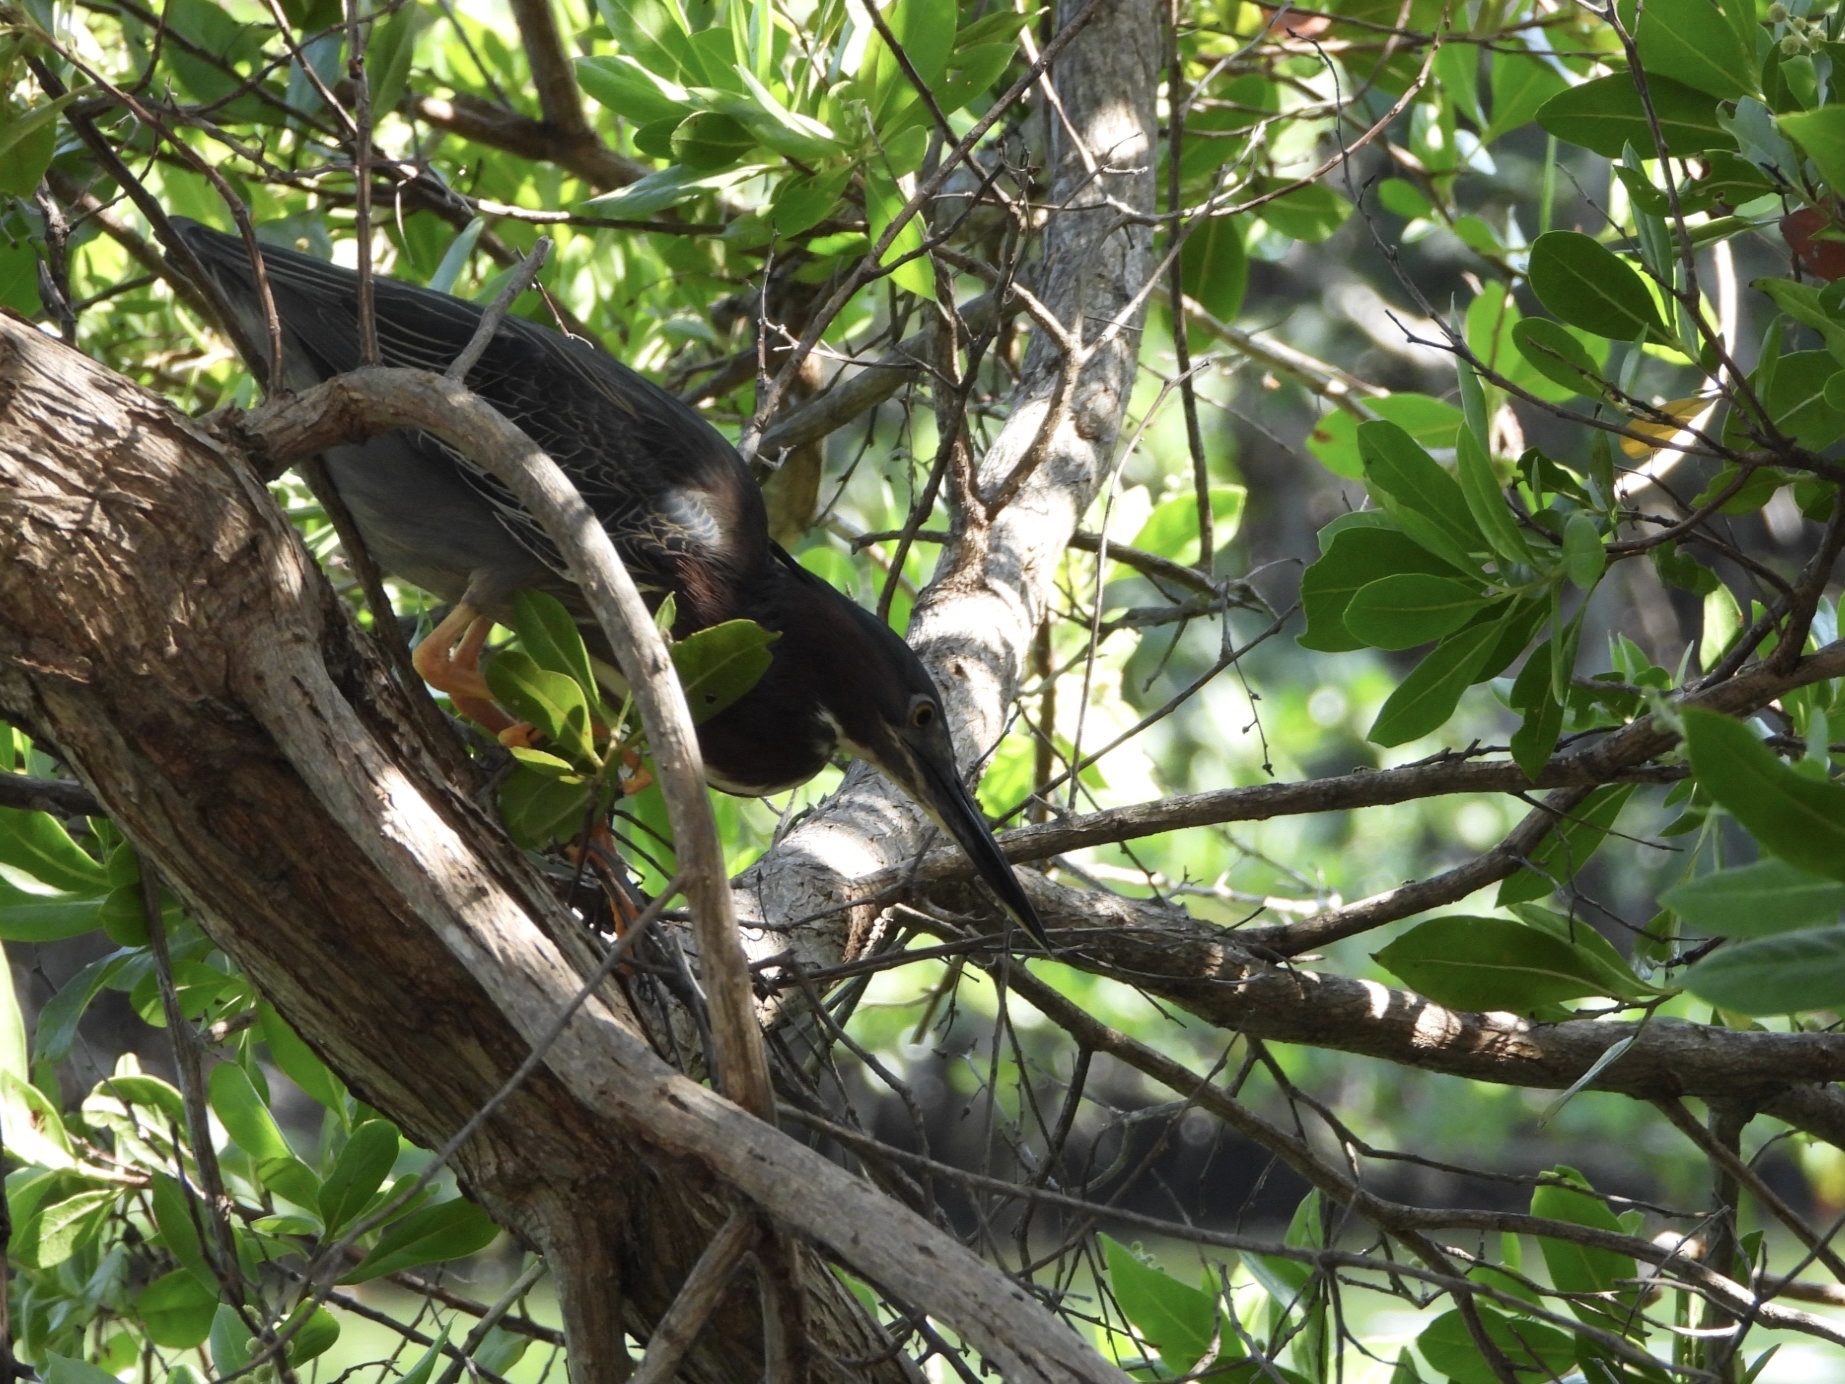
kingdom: Animalia
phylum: Chordata
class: Aves
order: Pelecaniformes
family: Ardeidae
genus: Butorides
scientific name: Butorides virescens
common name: Green heron
